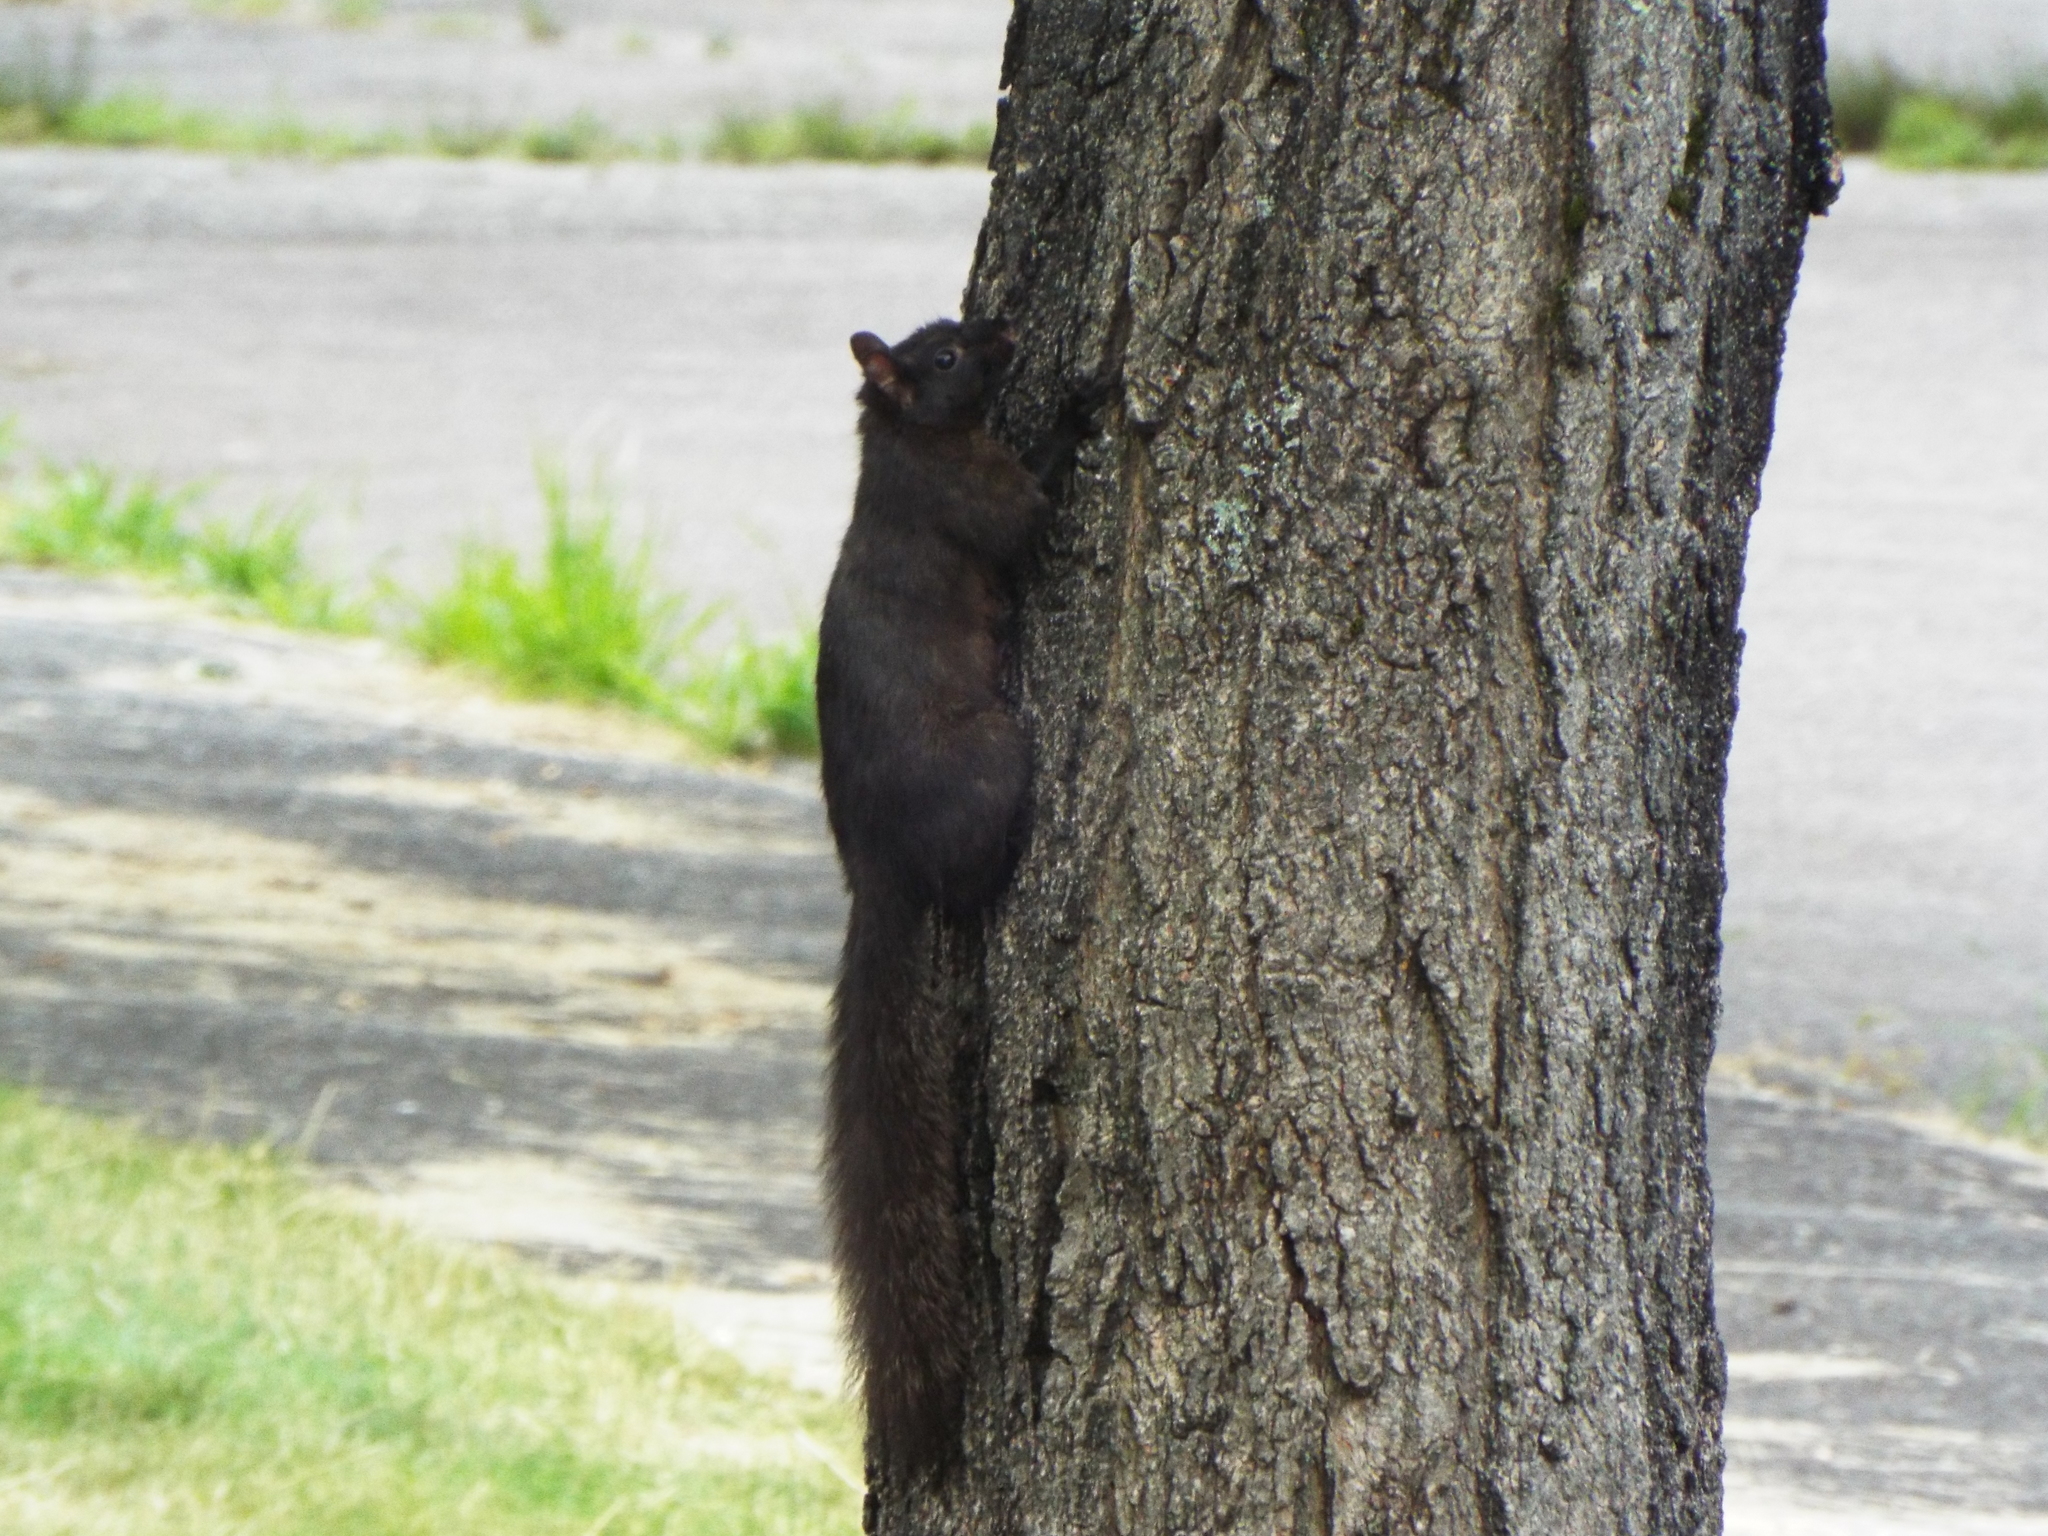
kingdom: Animalia
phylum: Chordata
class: Mammalia
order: Rodentia
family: Sciuridae
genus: Sciurus
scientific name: Sciurus carolinensis
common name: Eastern gray squirrel
